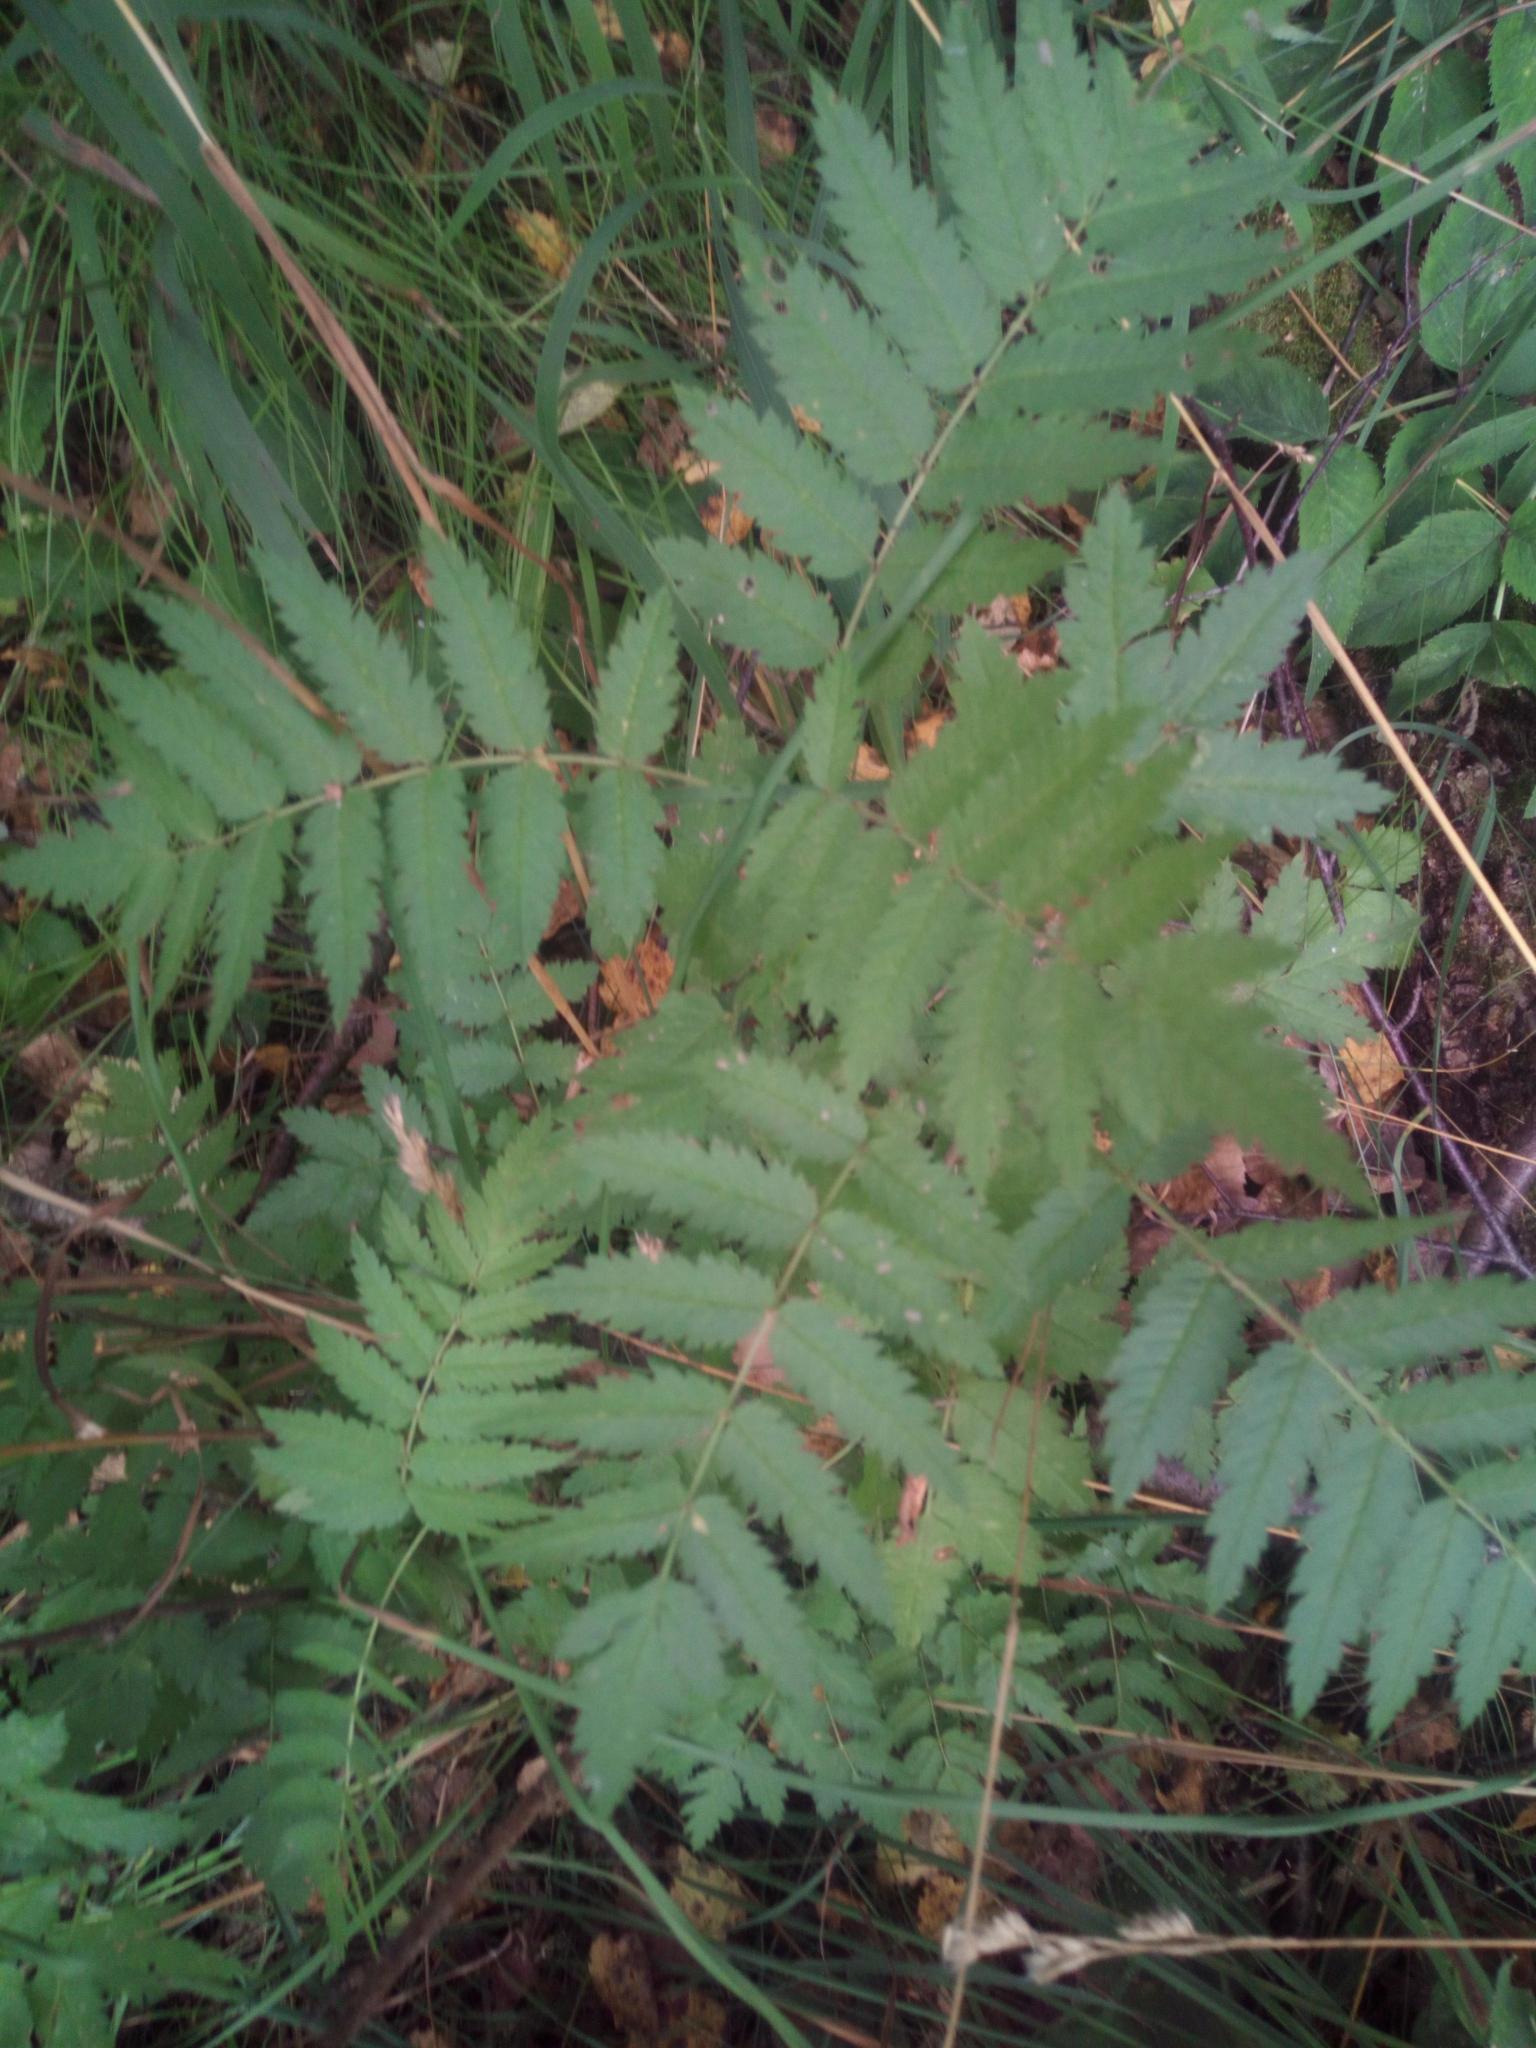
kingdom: Plantae
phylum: Tracheophyta
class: Magnoliopsida
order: Rosales
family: Rosaceae
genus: Sorbus
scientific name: Sorbus aucuparia
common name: Rowan
